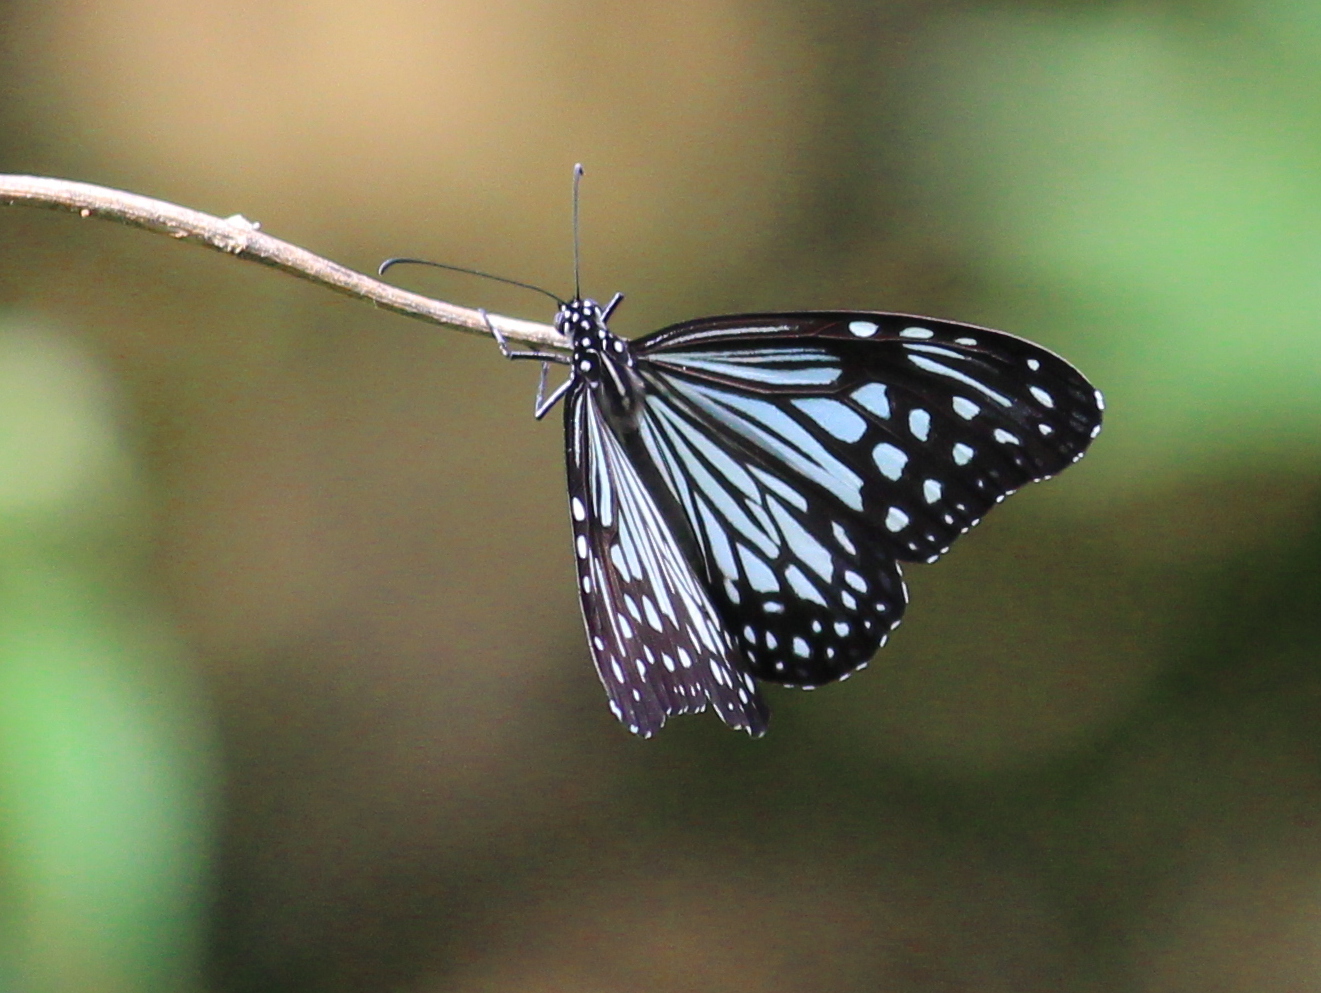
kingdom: Animalia
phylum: Arthropoda
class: Insecta
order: Lepidoptera
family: Nymphalidae
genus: Parantica
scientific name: Parantica aglea
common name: Glassy tiger
